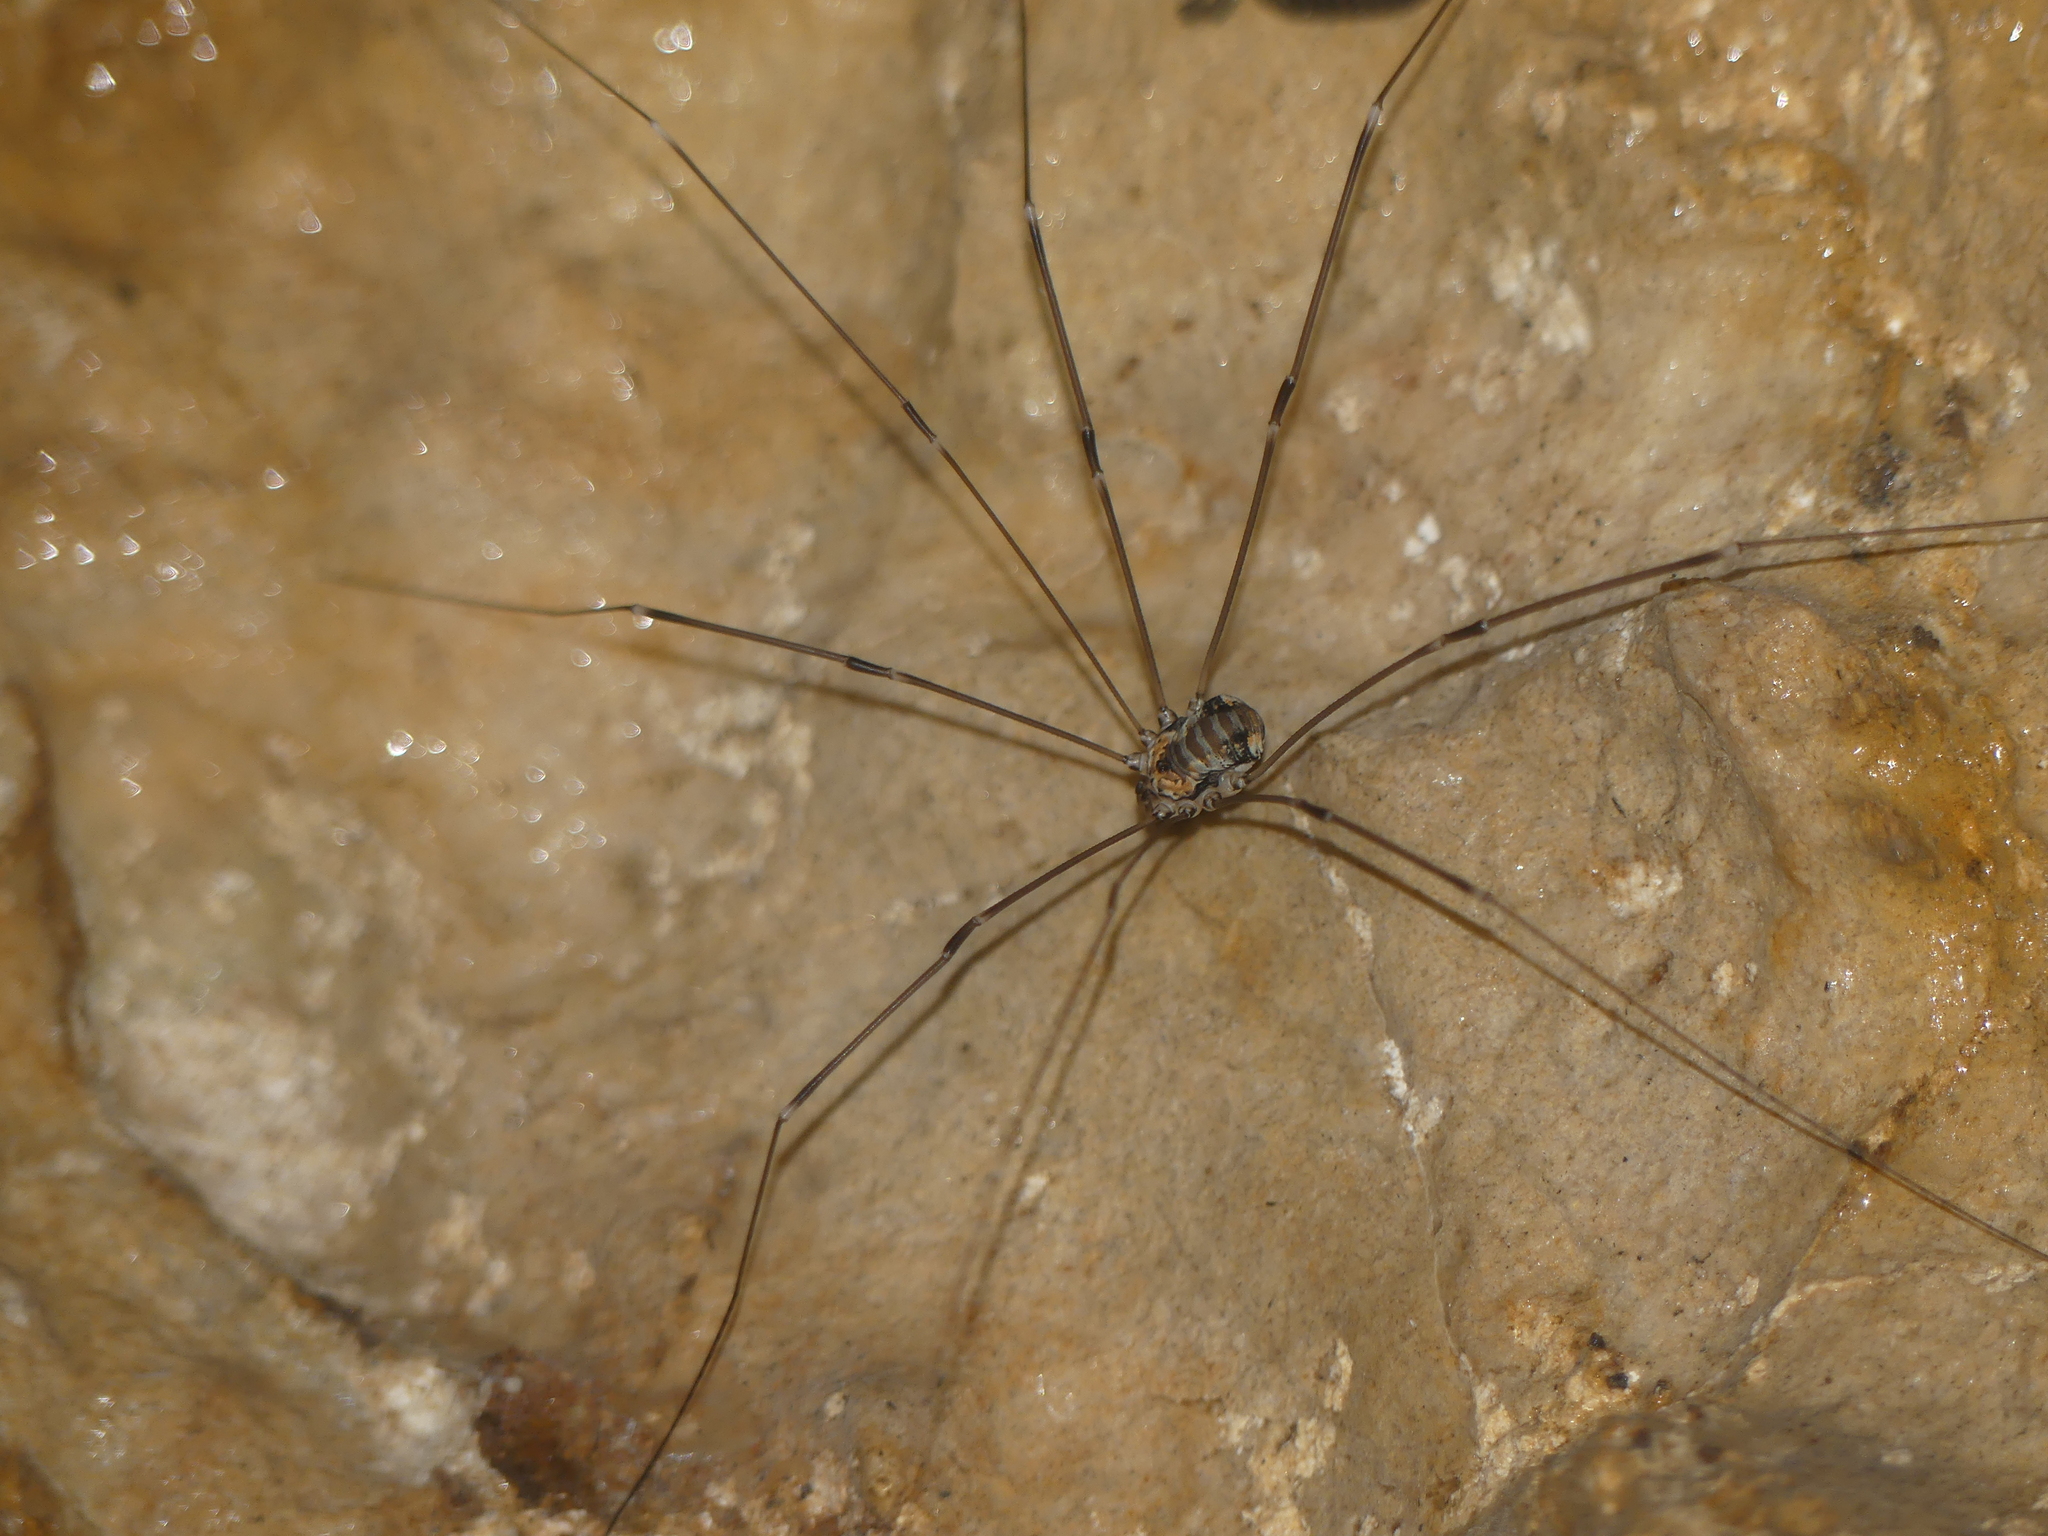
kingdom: Animalia
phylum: Arthropoda
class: Arachnida
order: Opiliones
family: Sclerosomatidae
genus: Leiobunum
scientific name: Leiobunum limbatum
